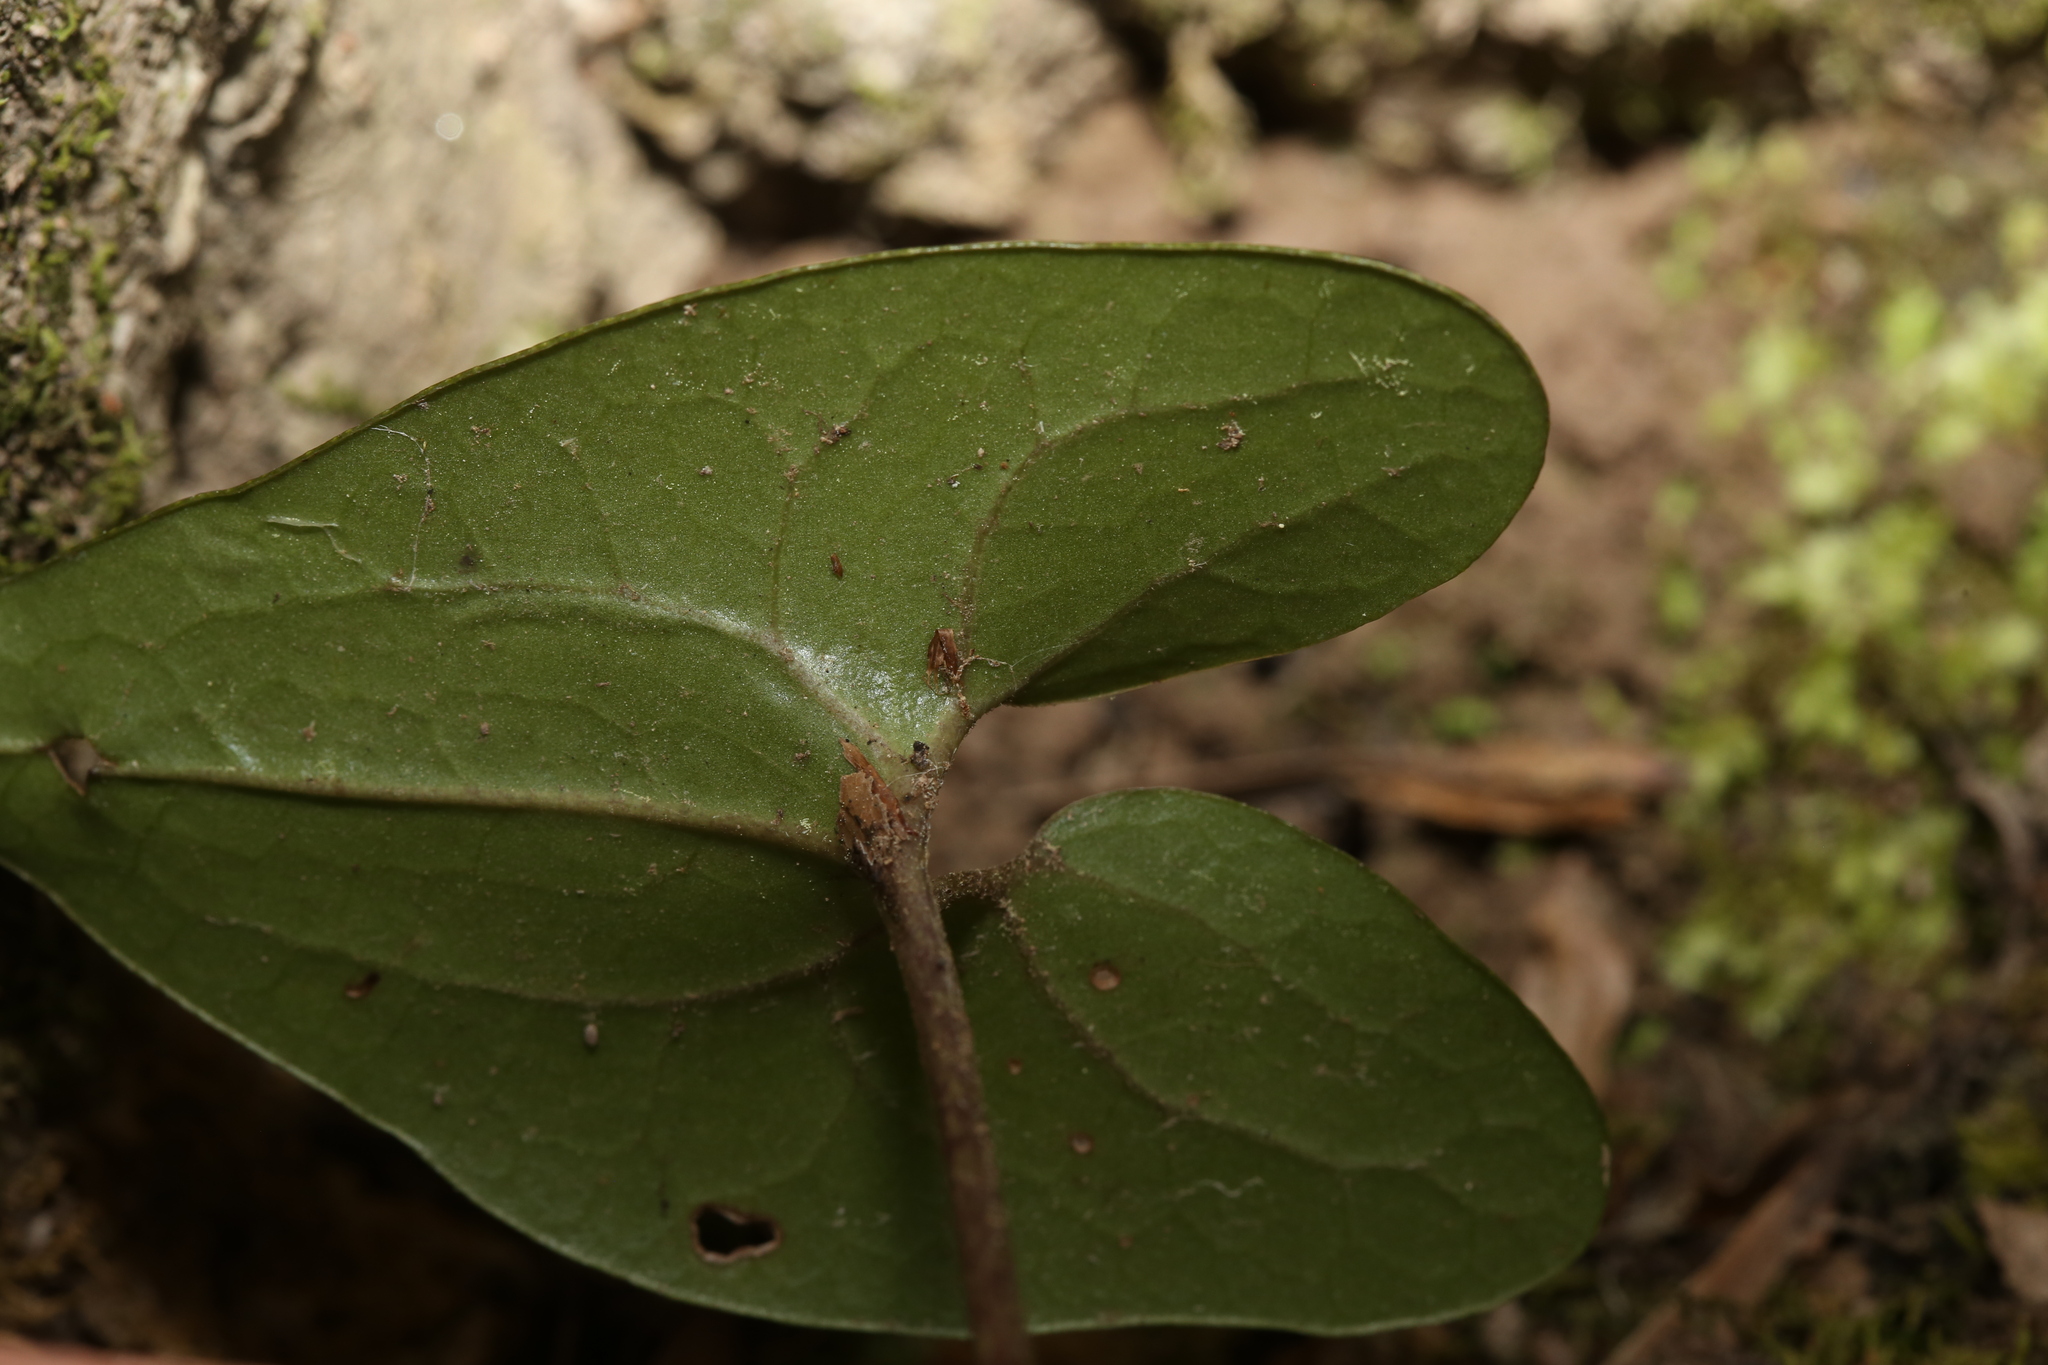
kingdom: Plantae
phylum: Tracheophyta
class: Magnoliopsida
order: Piperales
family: Aristolochiaceae
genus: Hexastylis
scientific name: Hexastylis arifolia
